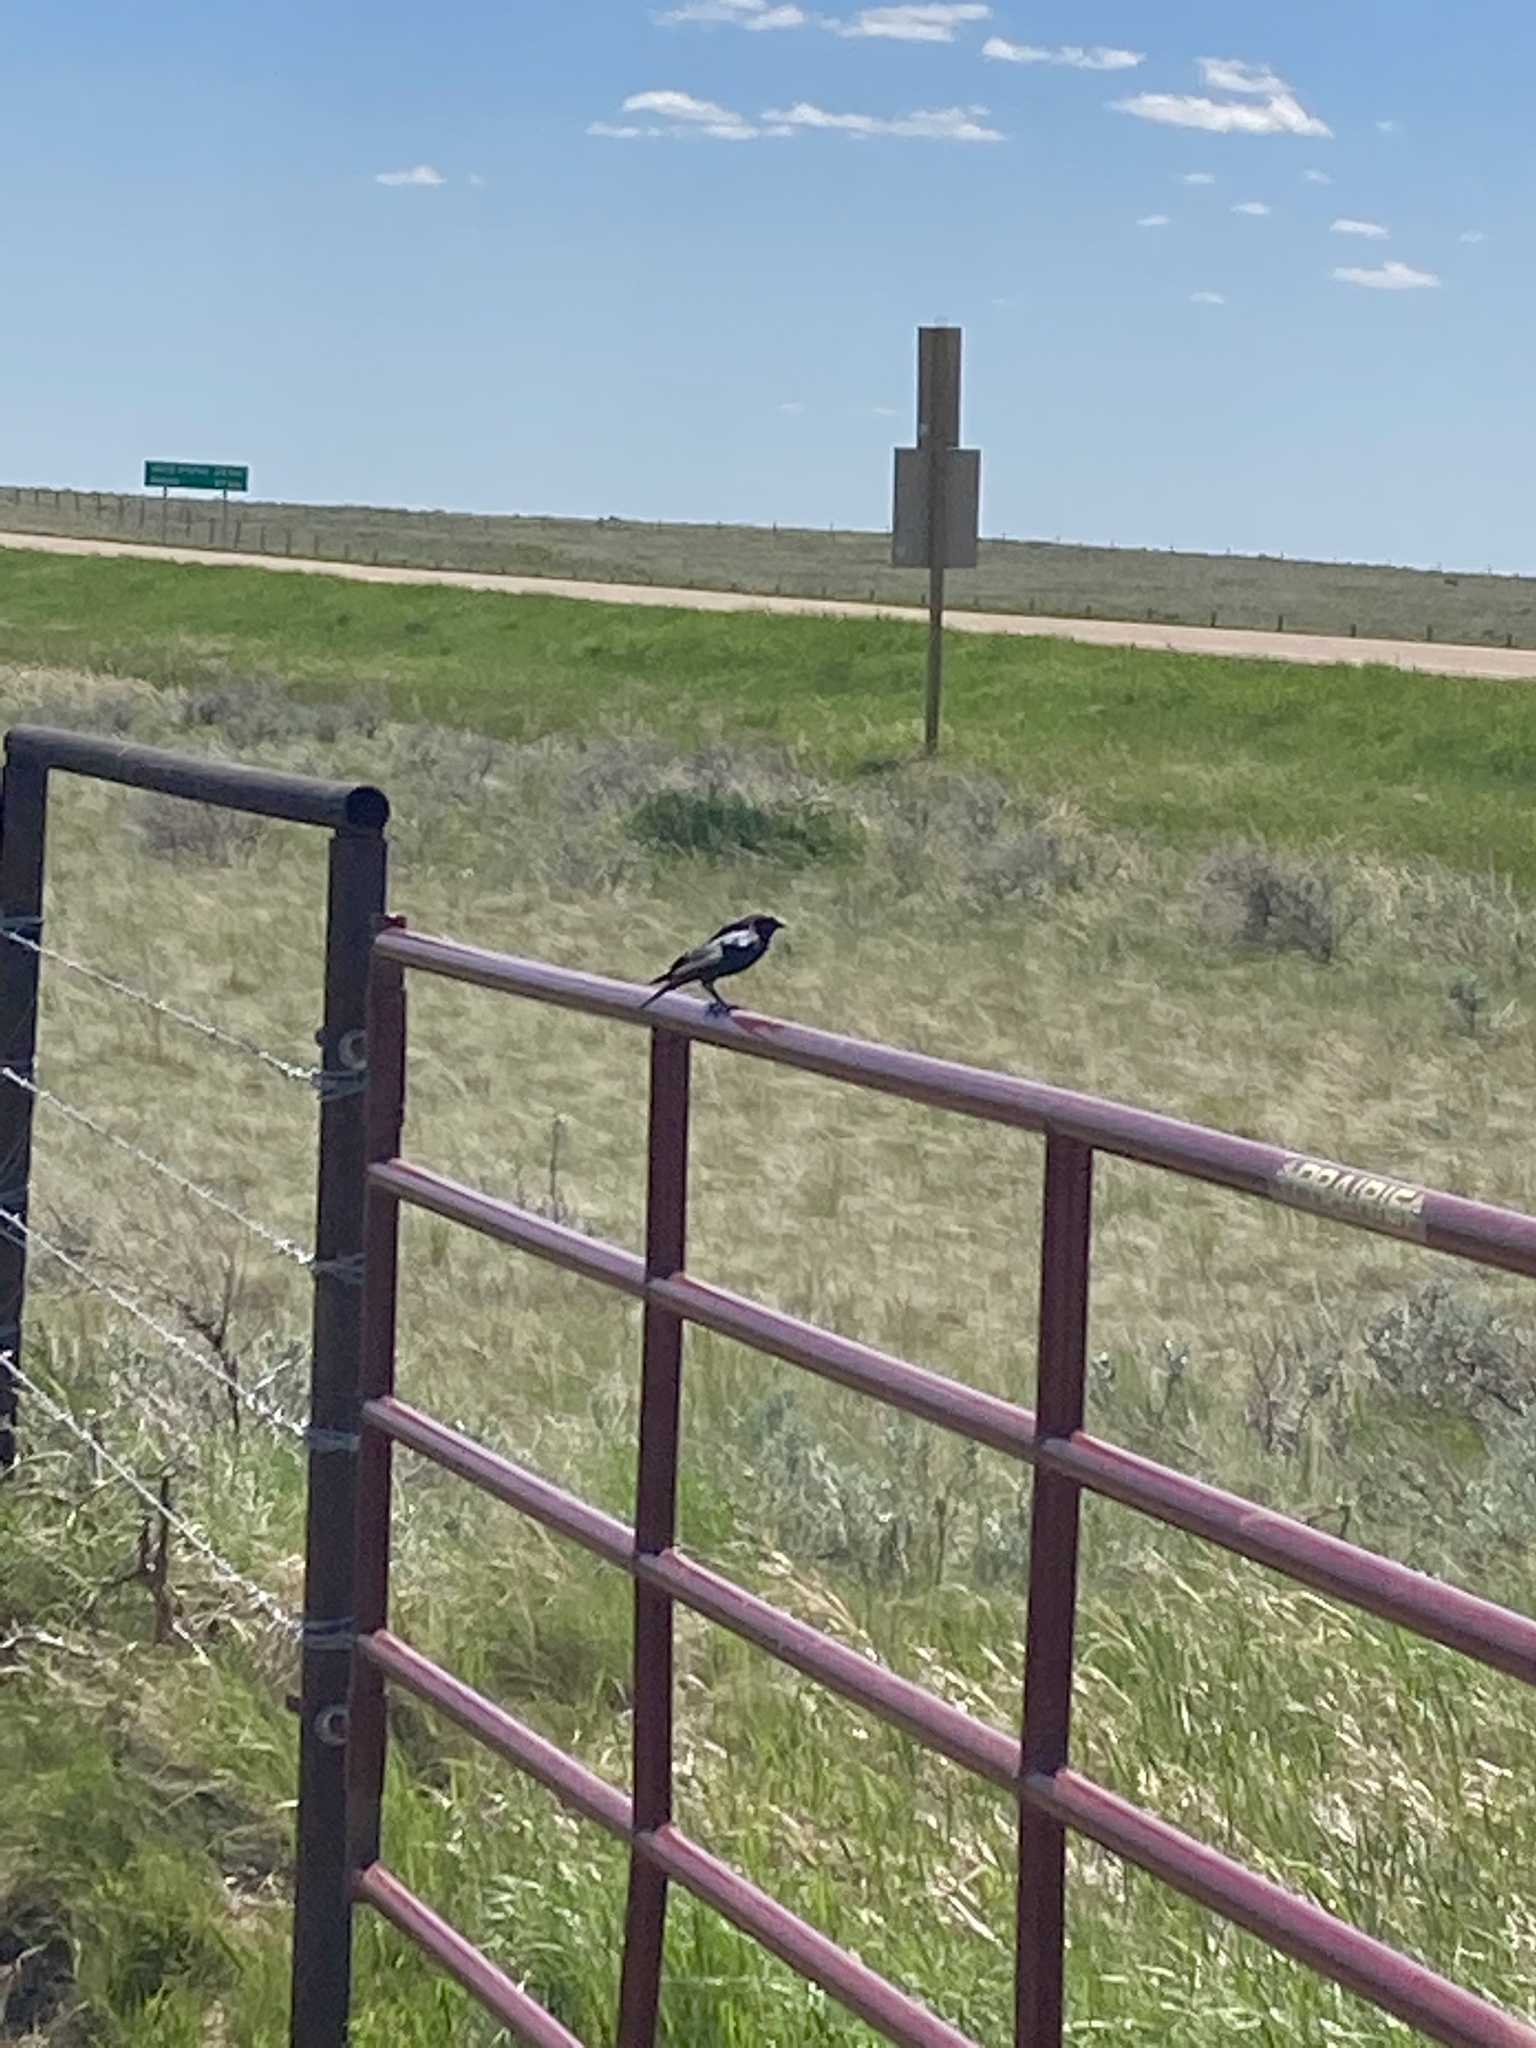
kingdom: Animalia
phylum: Chordata
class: Aves
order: Passeriformes
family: Icteridae
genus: Molothrus
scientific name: Molothrus ater
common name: Brown-headed cowbird
